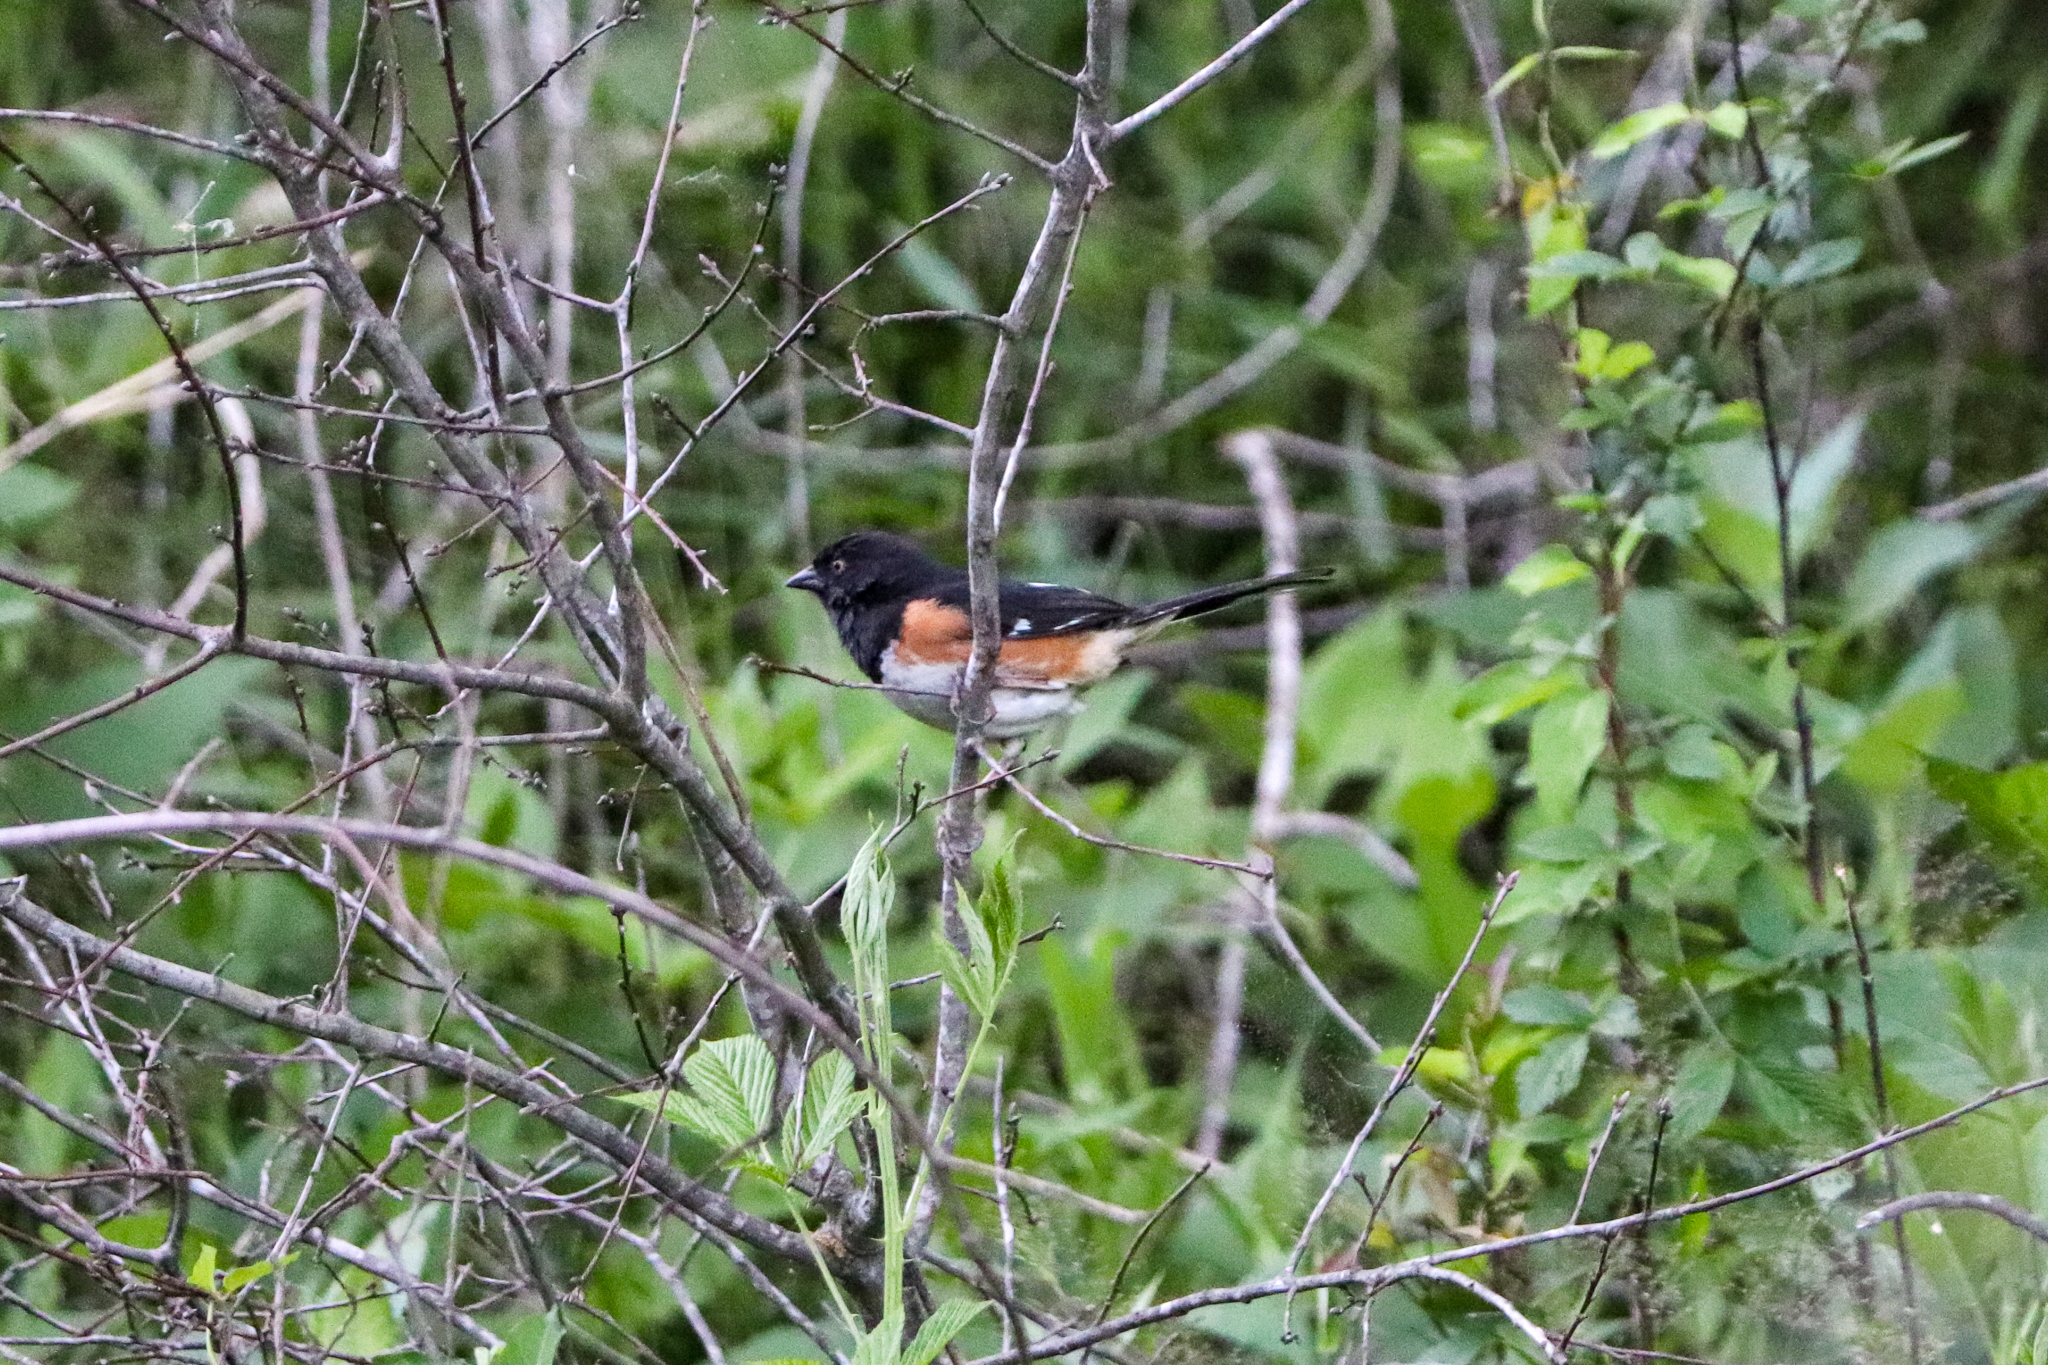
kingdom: Animalia
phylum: Chordata
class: Aves
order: Passeriformes
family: Passerellidae
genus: Pipilo
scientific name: Pipilo erythrophthalmus
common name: Eastern towhee
